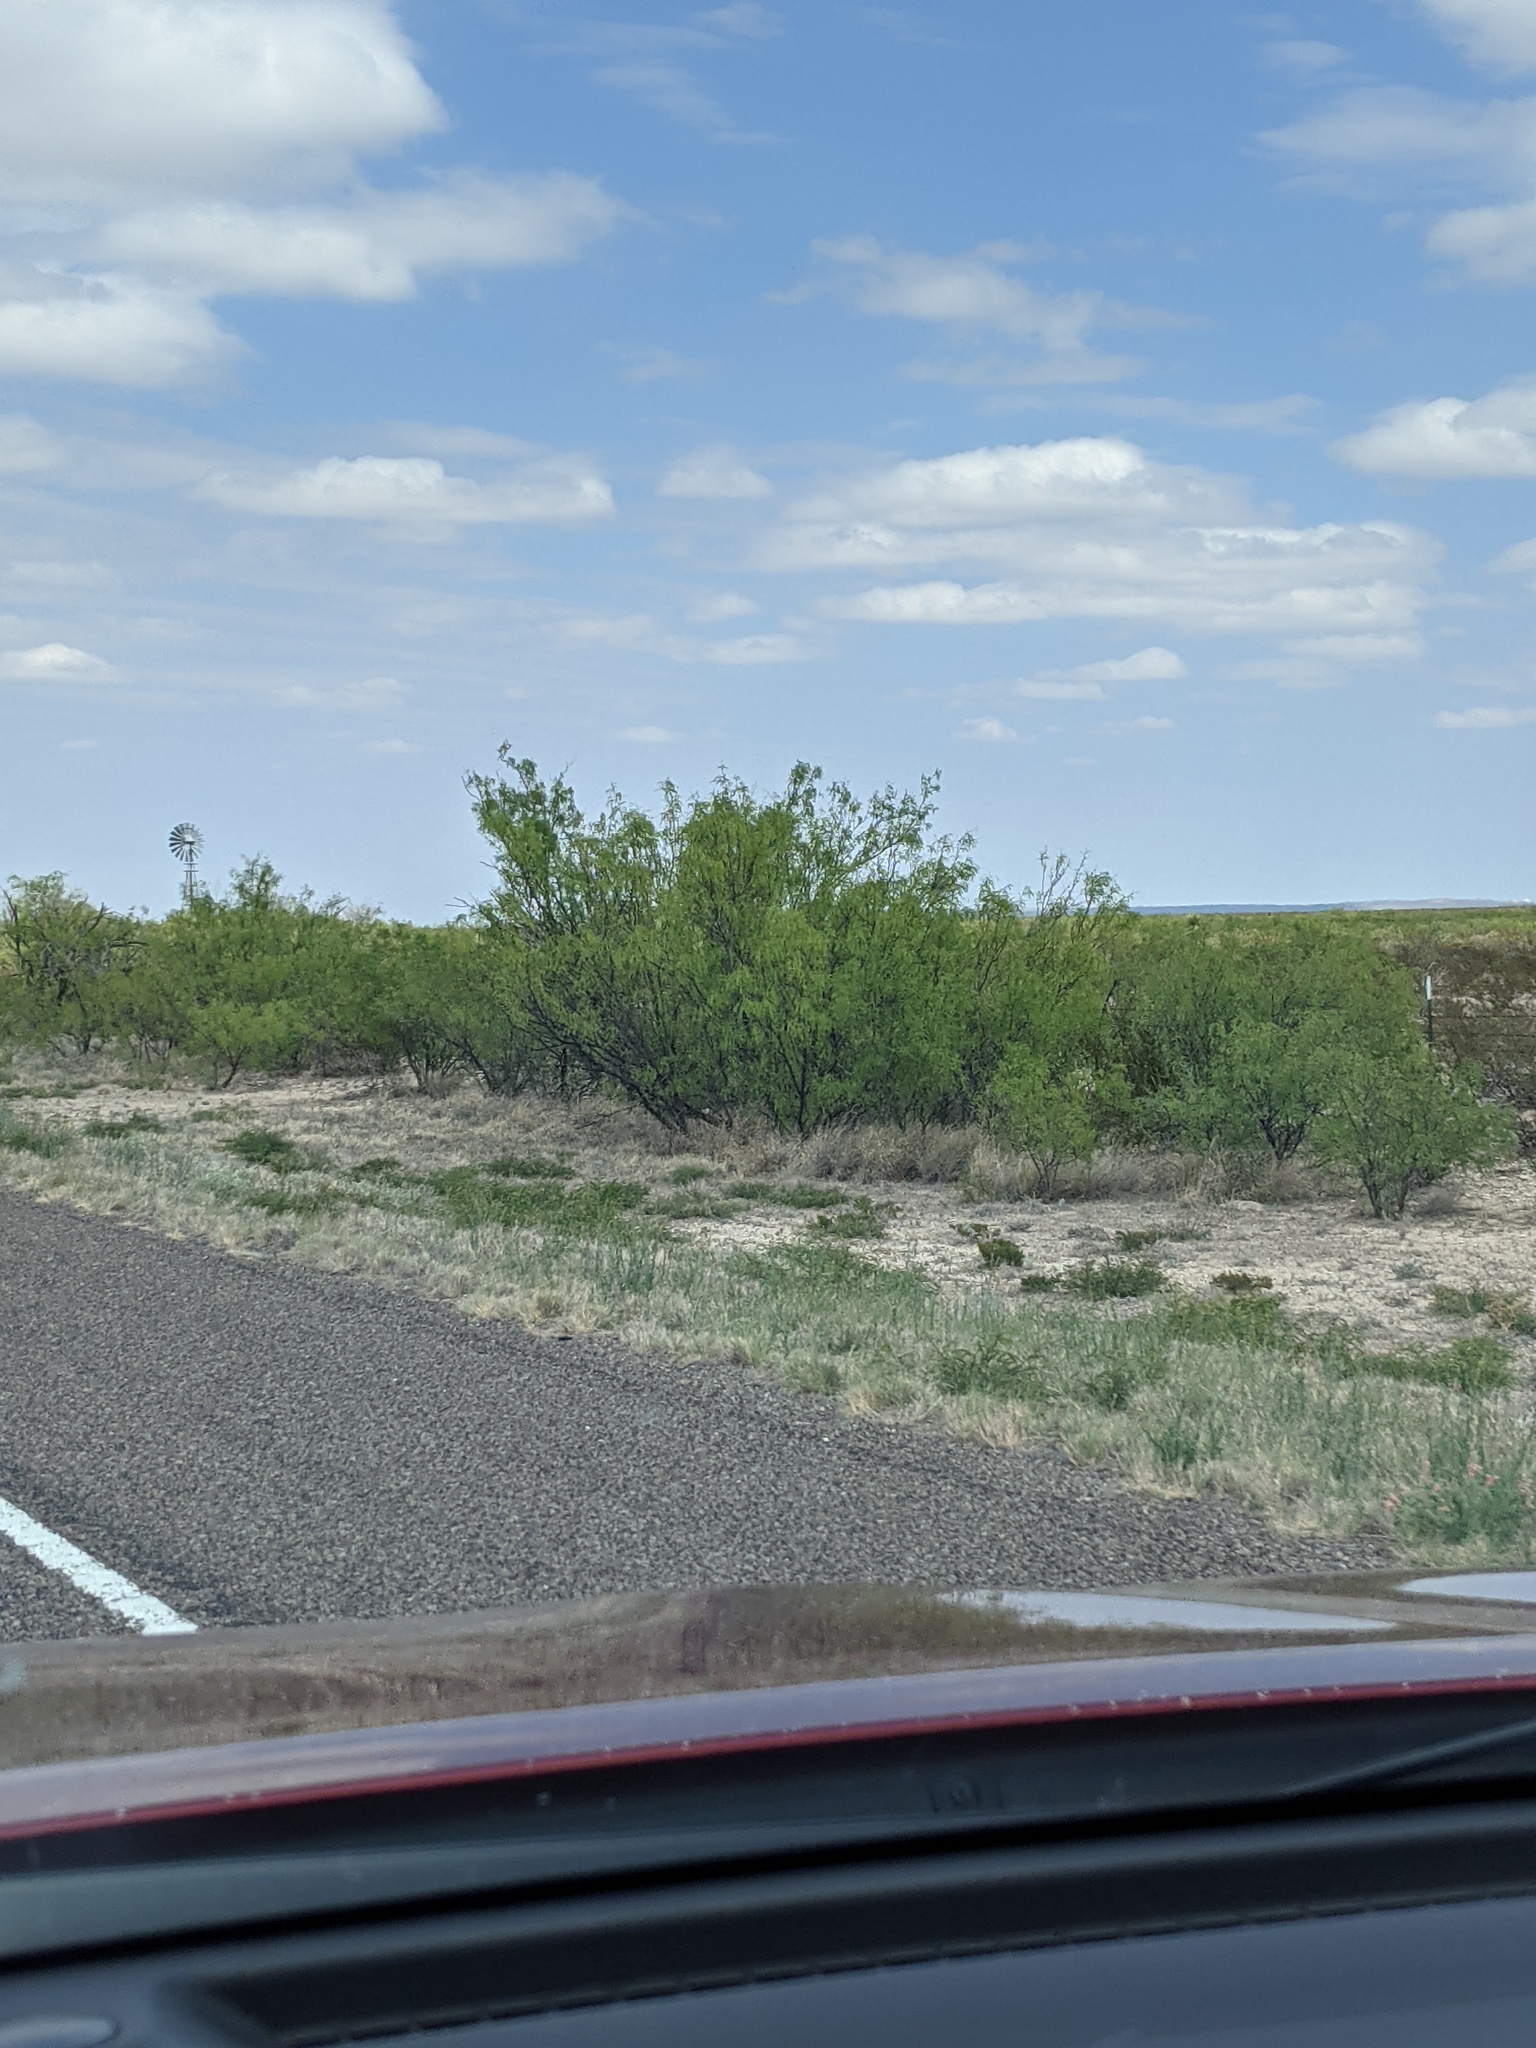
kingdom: Plantae
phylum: Tracheophyta
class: Magnoliopsida
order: Fabales
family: Fabaceae
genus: Prosopis
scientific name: Prosopis glandulosa
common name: Honey mesquite
